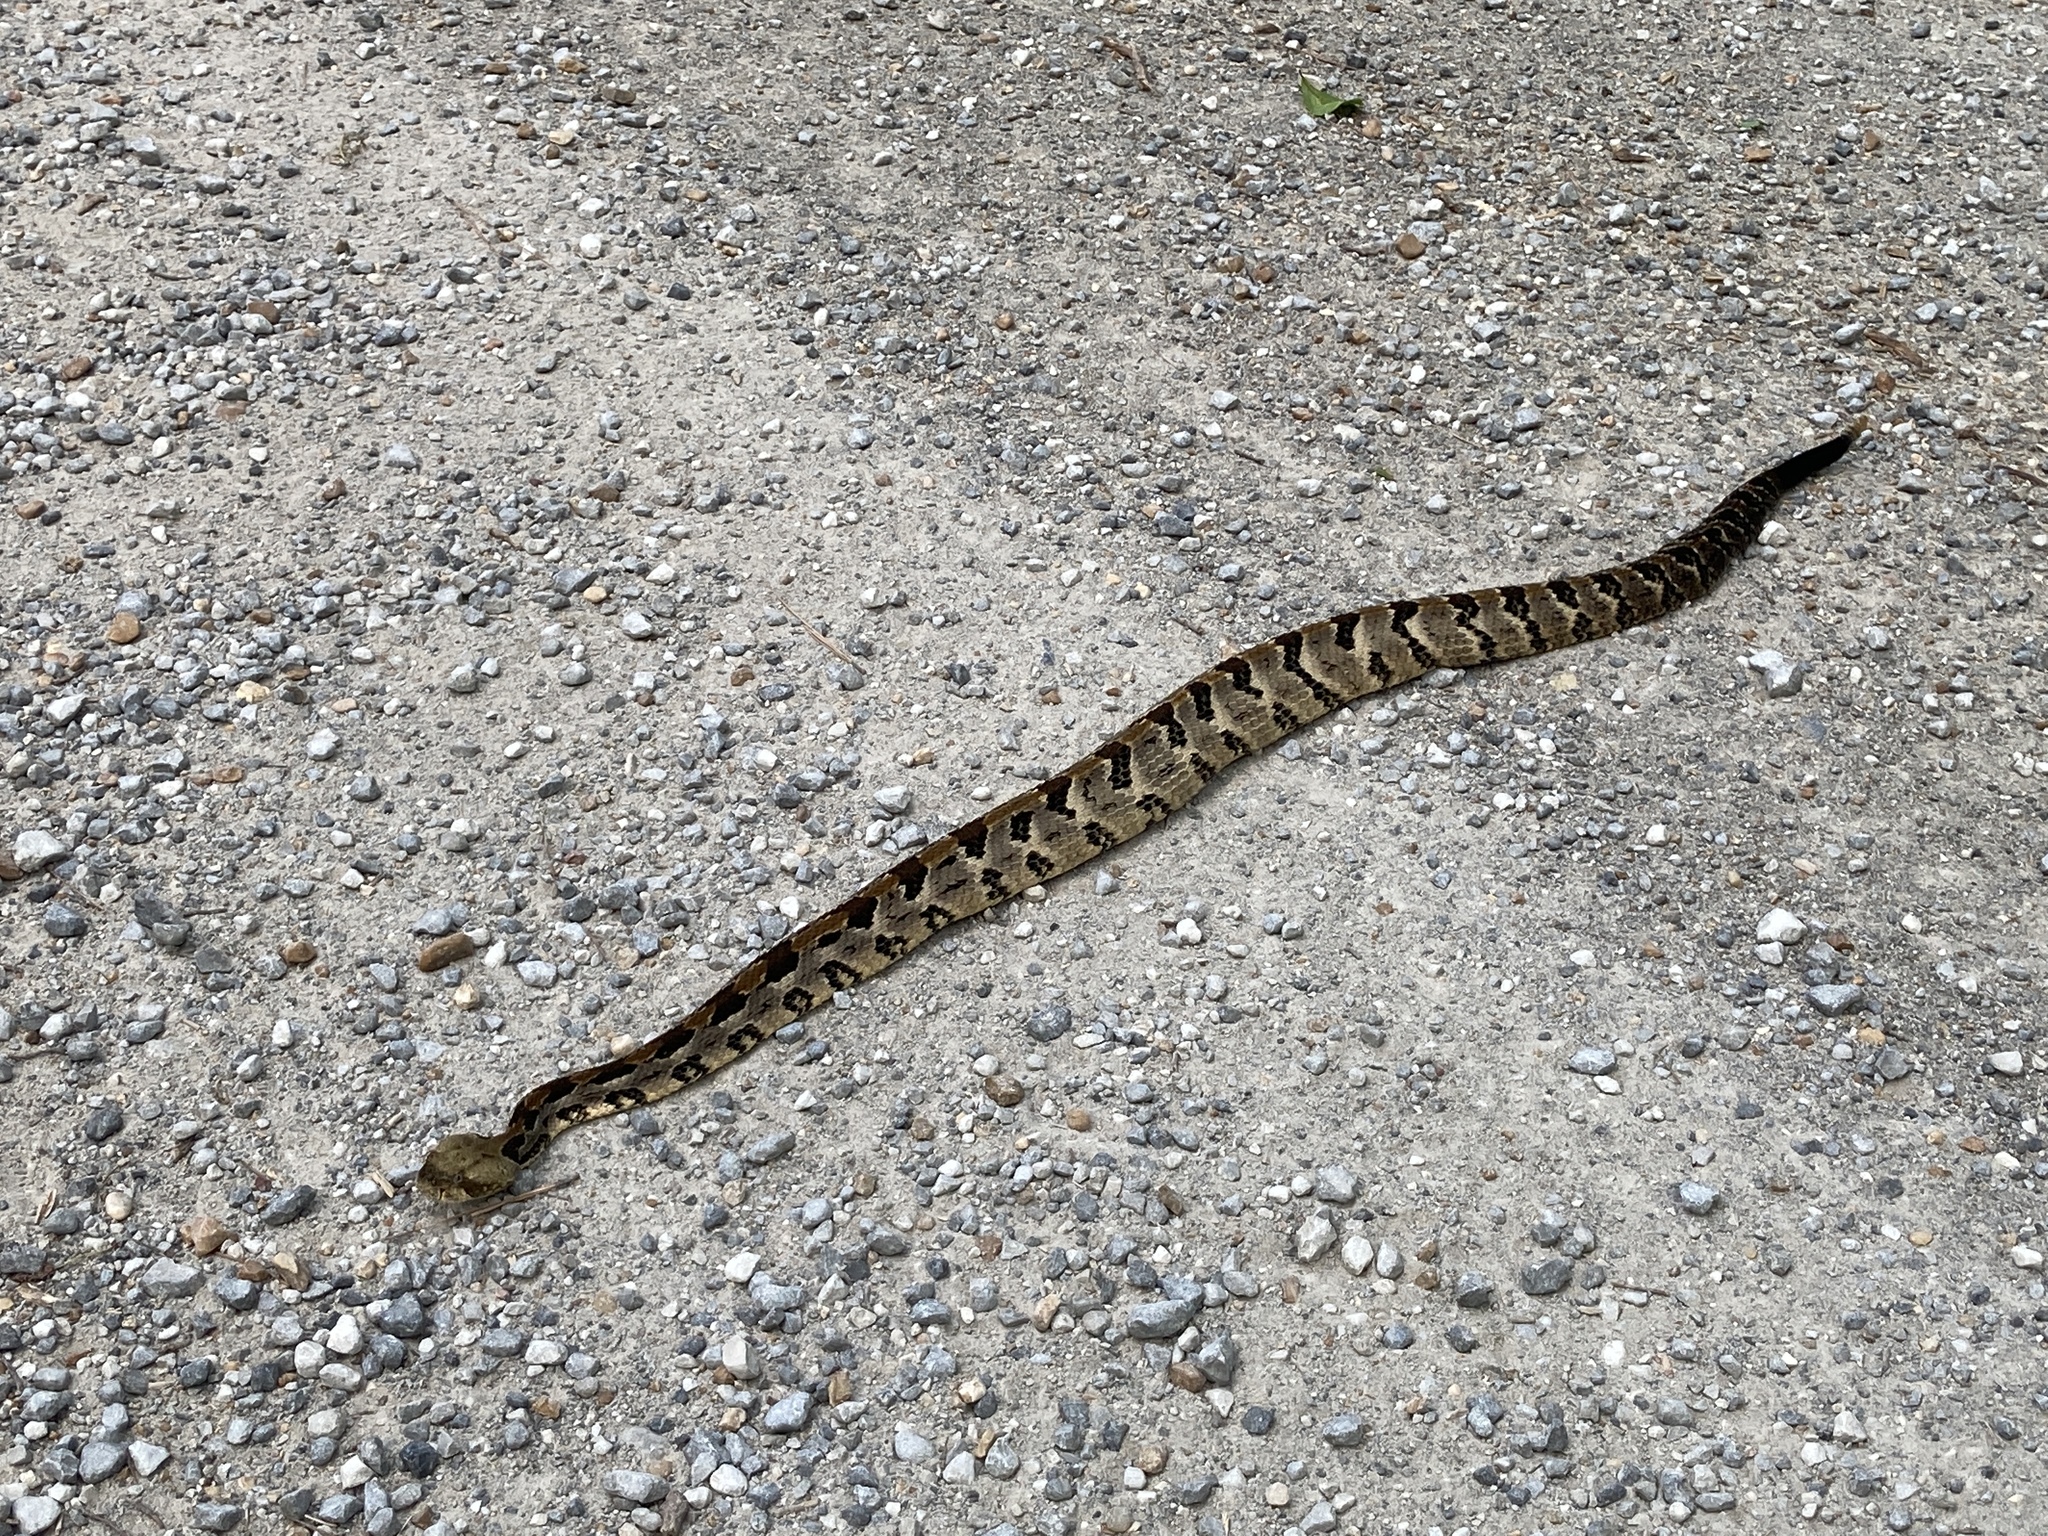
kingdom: Animalia
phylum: Chordata
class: Squamata
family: Viperidae
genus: Crotalus
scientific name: Crotalus horridus
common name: Timber rattlesnake
